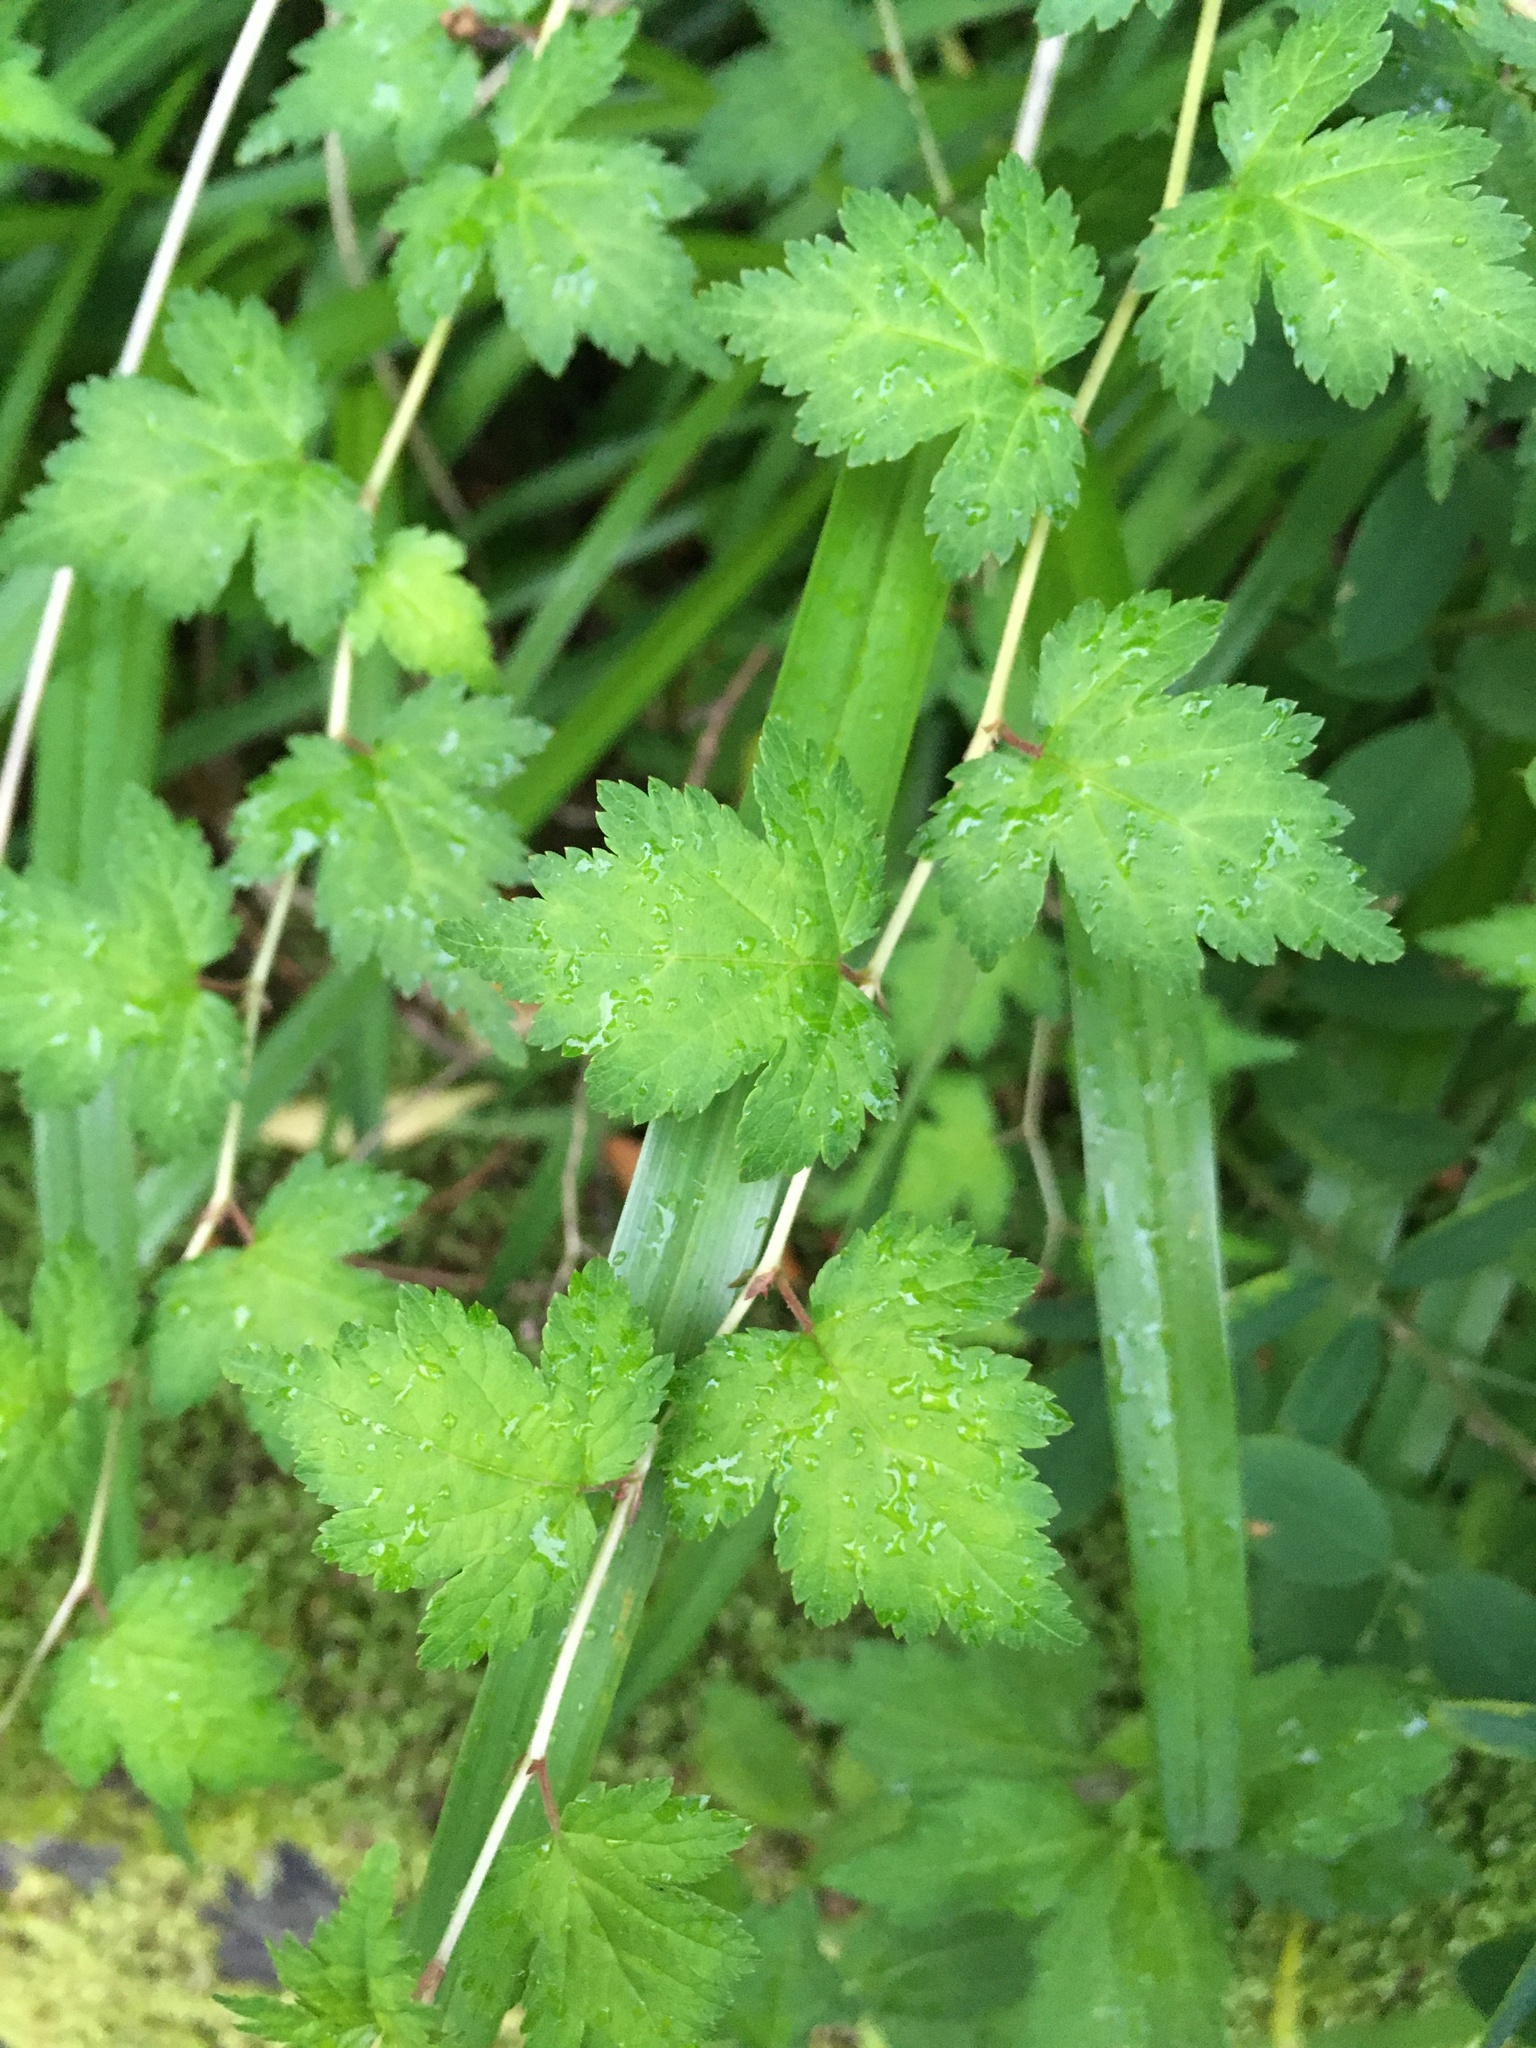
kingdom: Plantae
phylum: Tracheophyta
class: Magnoliopsida
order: Rosales
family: Rosaceae
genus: Neillia
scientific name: Neillia incisa
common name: Laceshrub
